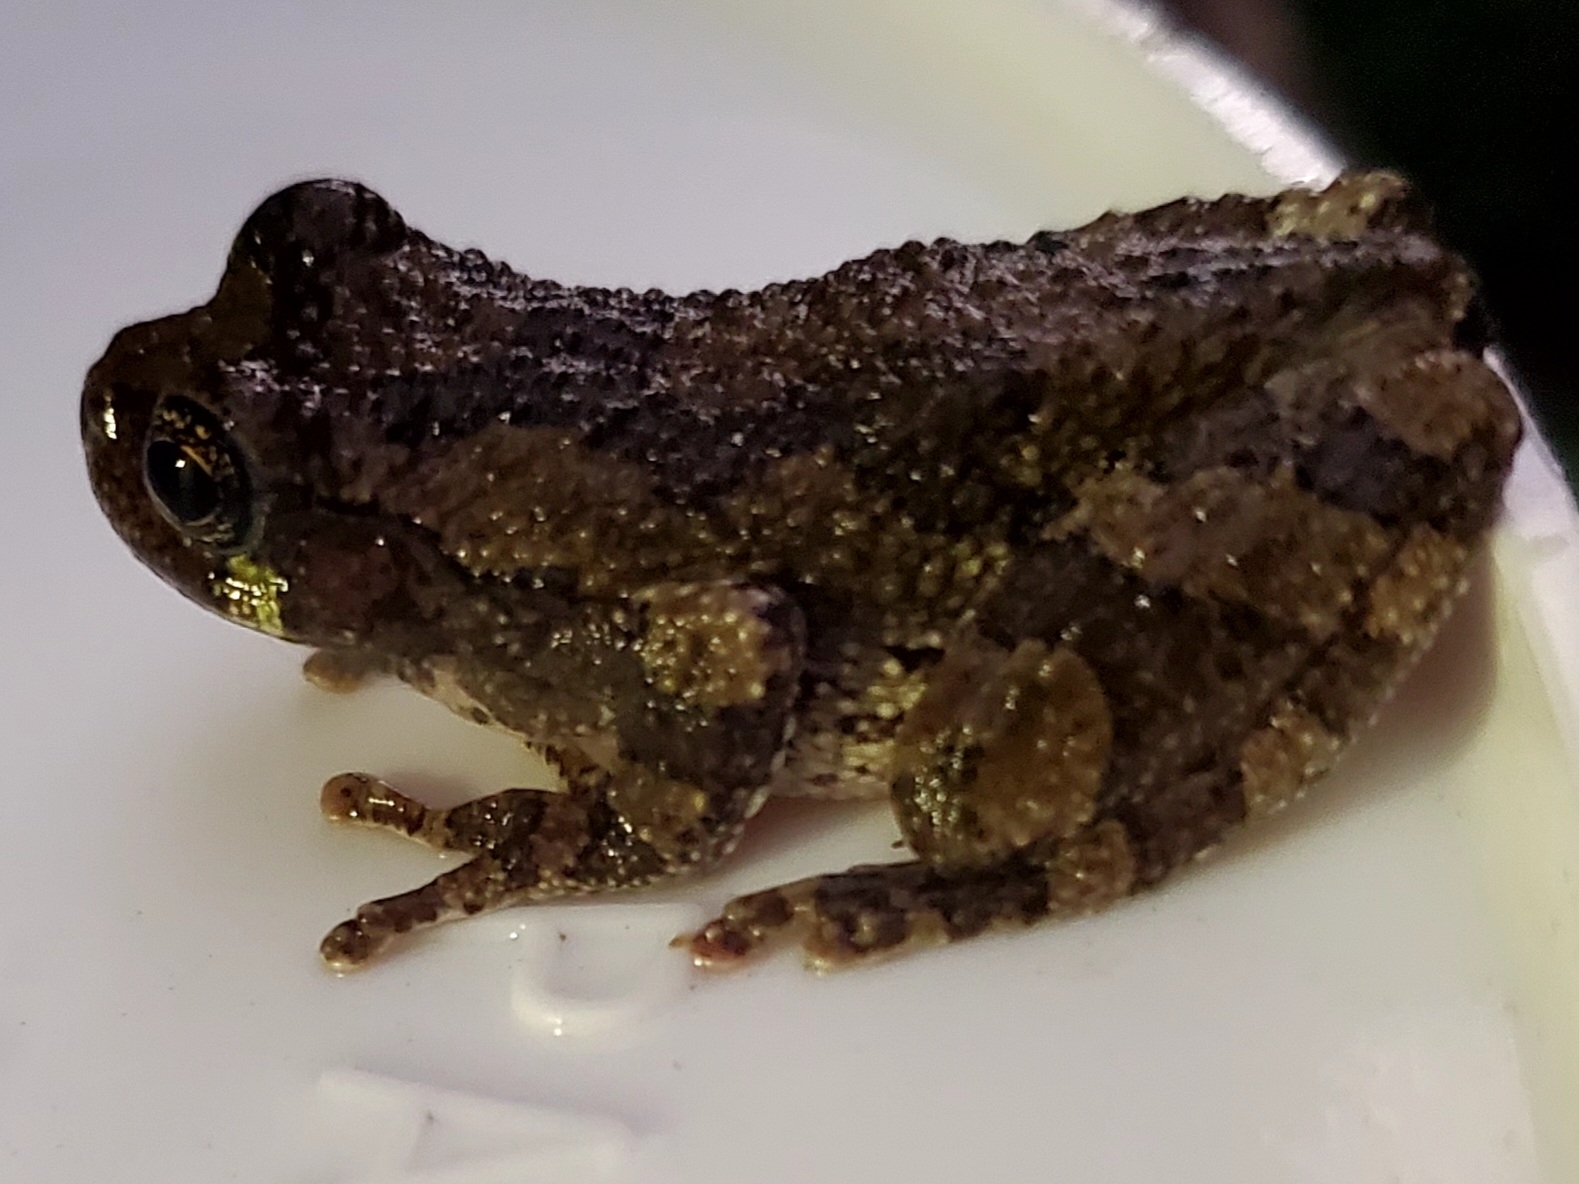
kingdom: Animalia
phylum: Chordata
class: Amphibia
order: Anura
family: Hylidae
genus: Dryophytes
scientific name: Dryophytes chrysoscelis
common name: Cope's gray treefrog
